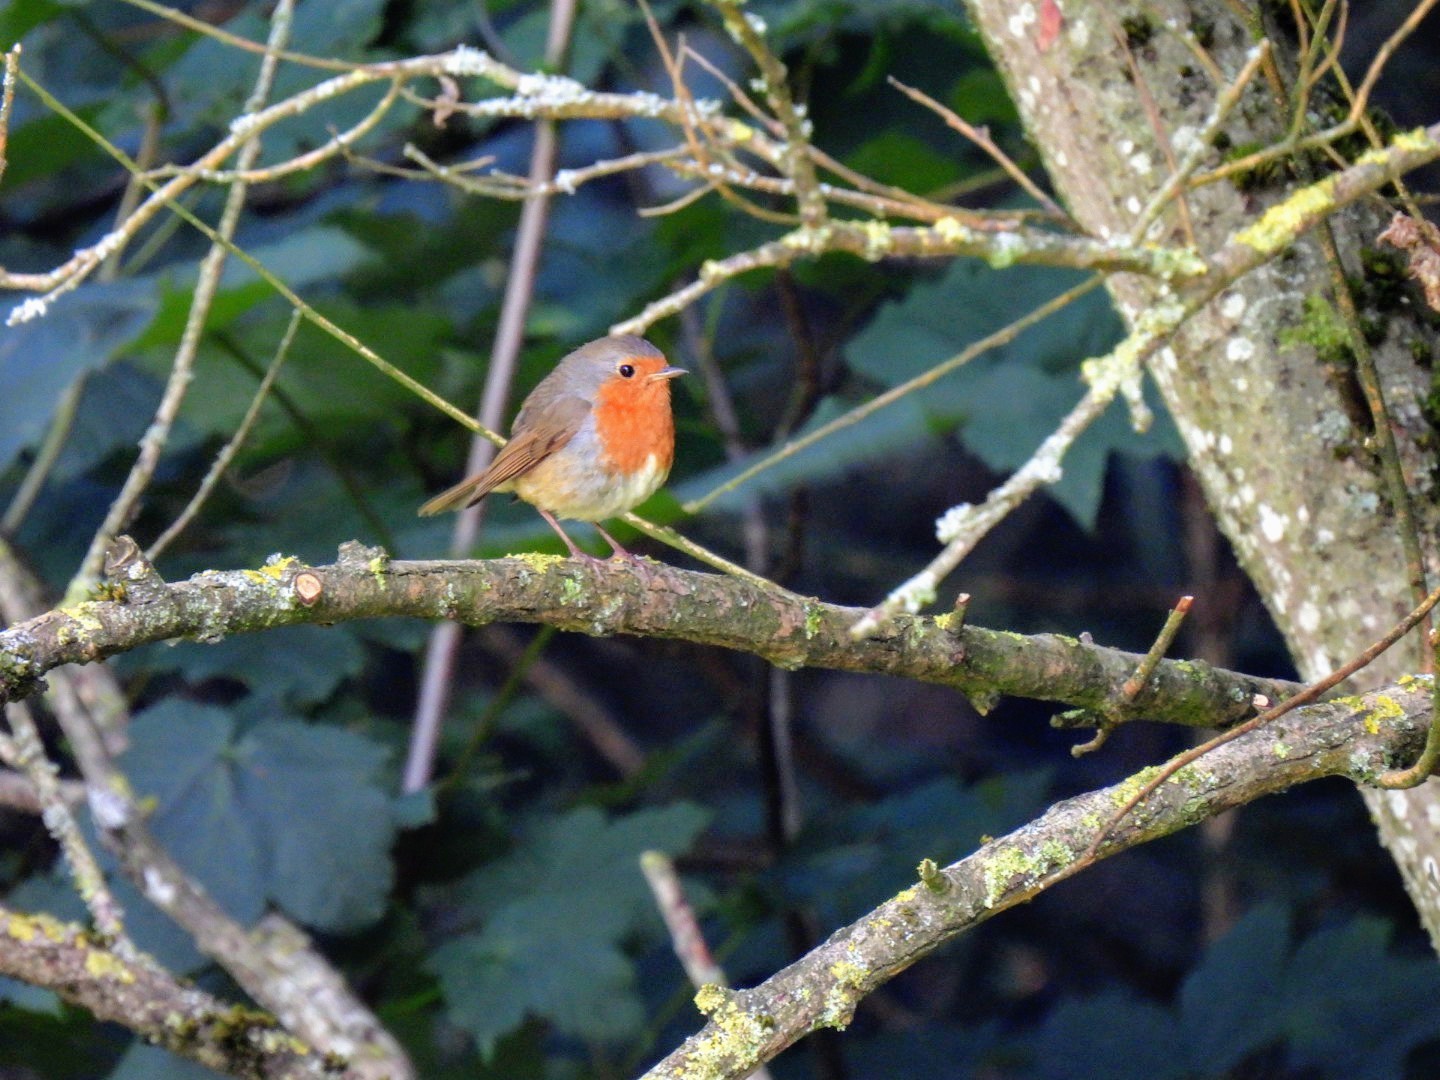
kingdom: Animalia
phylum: Chordata
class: Aves
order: Passeriformes
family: Muscicapidae
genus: Erithacus
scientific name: Erithacus rubecula
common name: European robin
